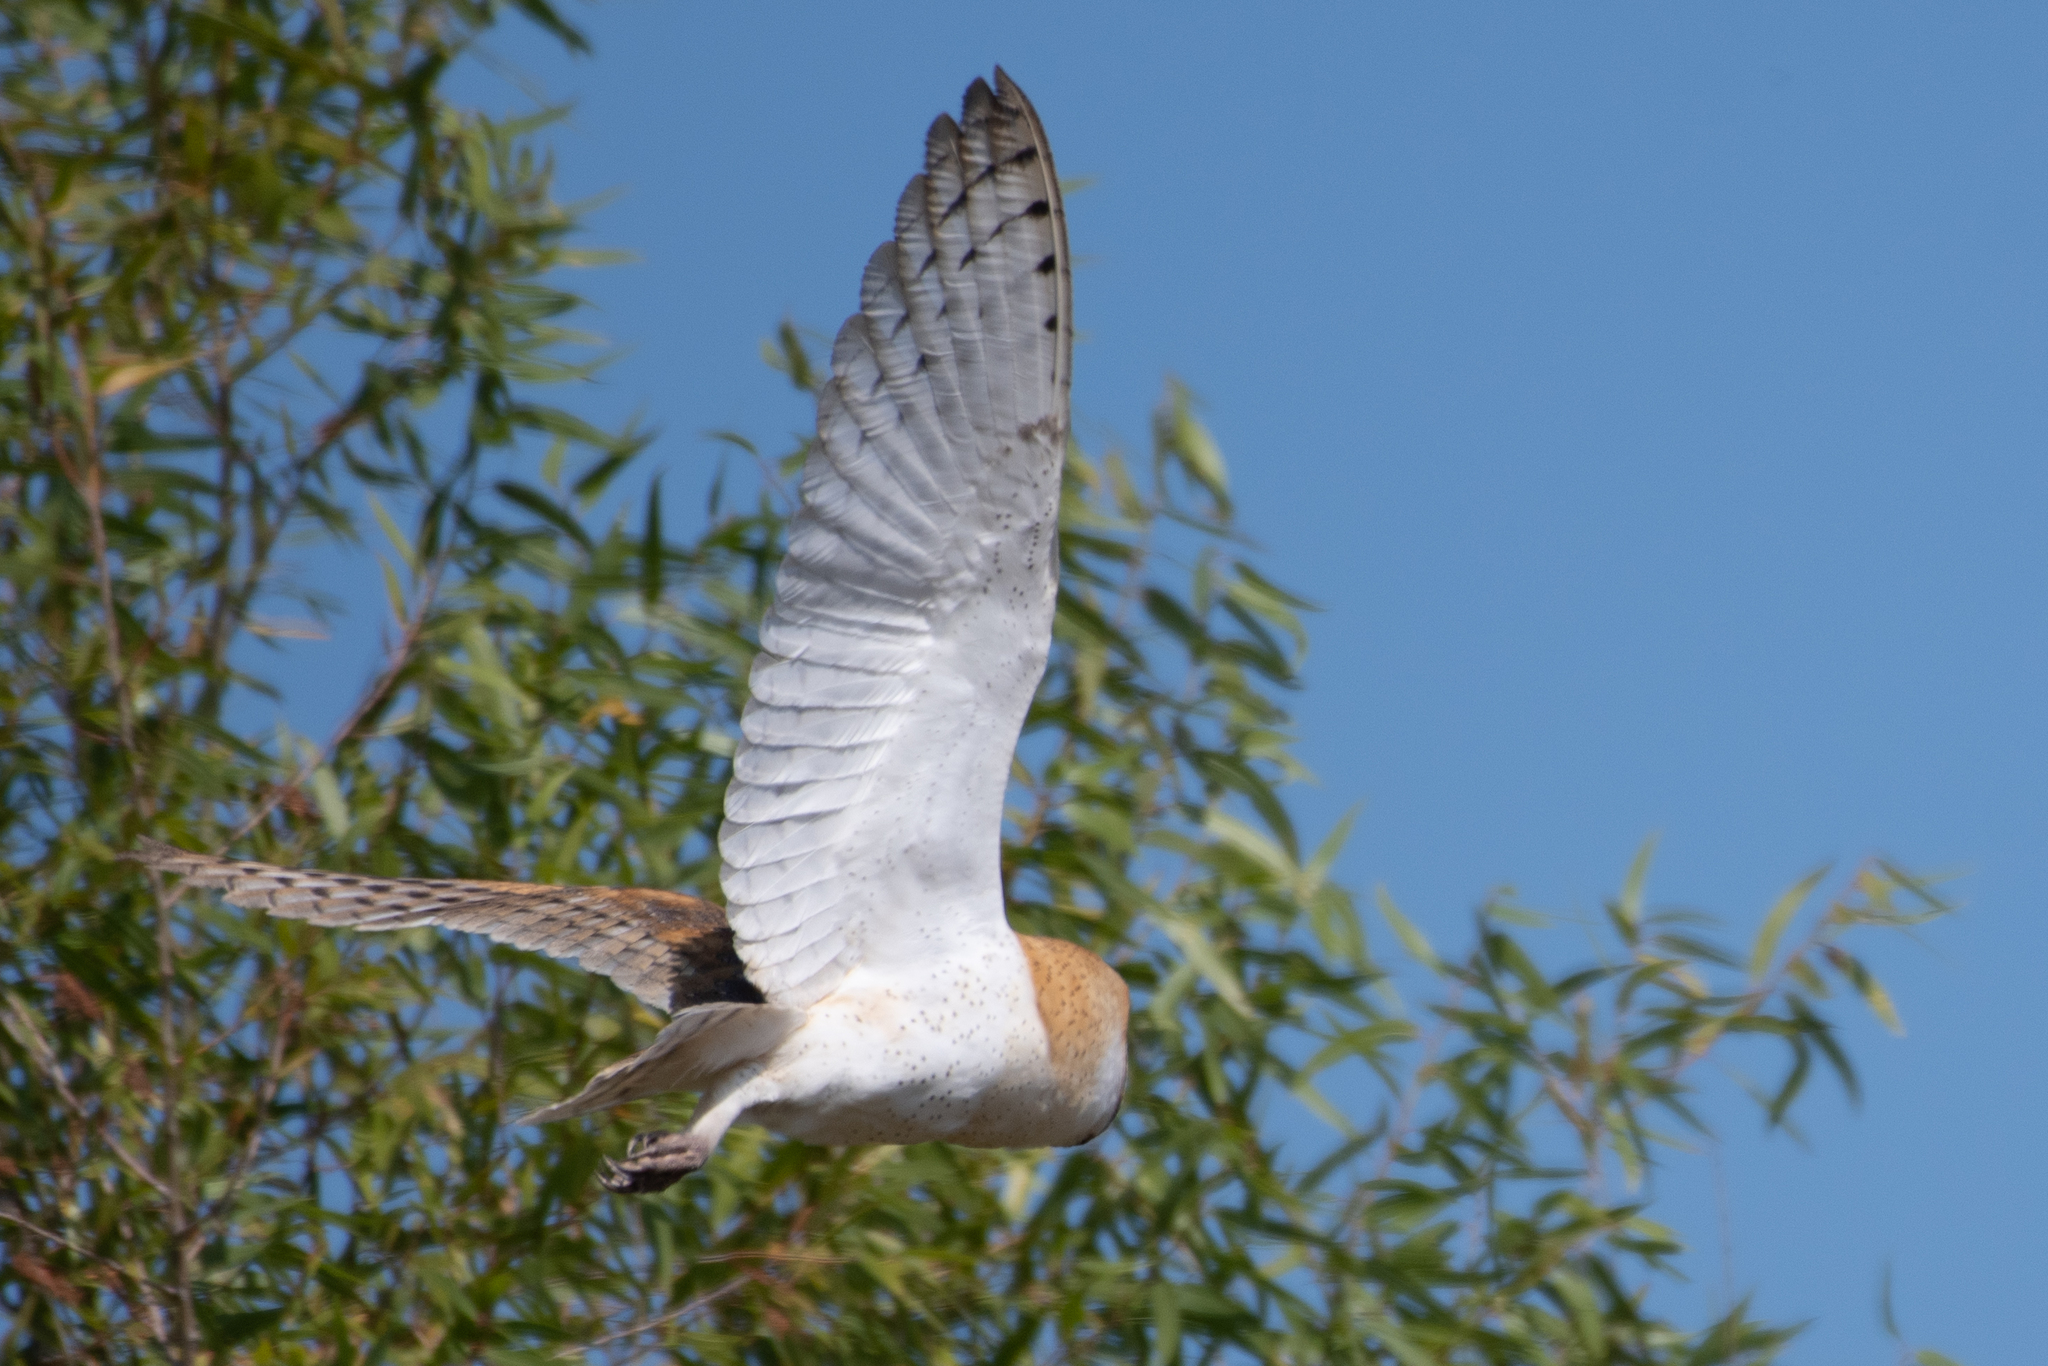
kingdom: Animalia
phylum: Chordata
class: Aves
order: Strigiformes
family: Tytonidae
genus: Tyto
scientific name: Tyto alba
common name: Barn owl
